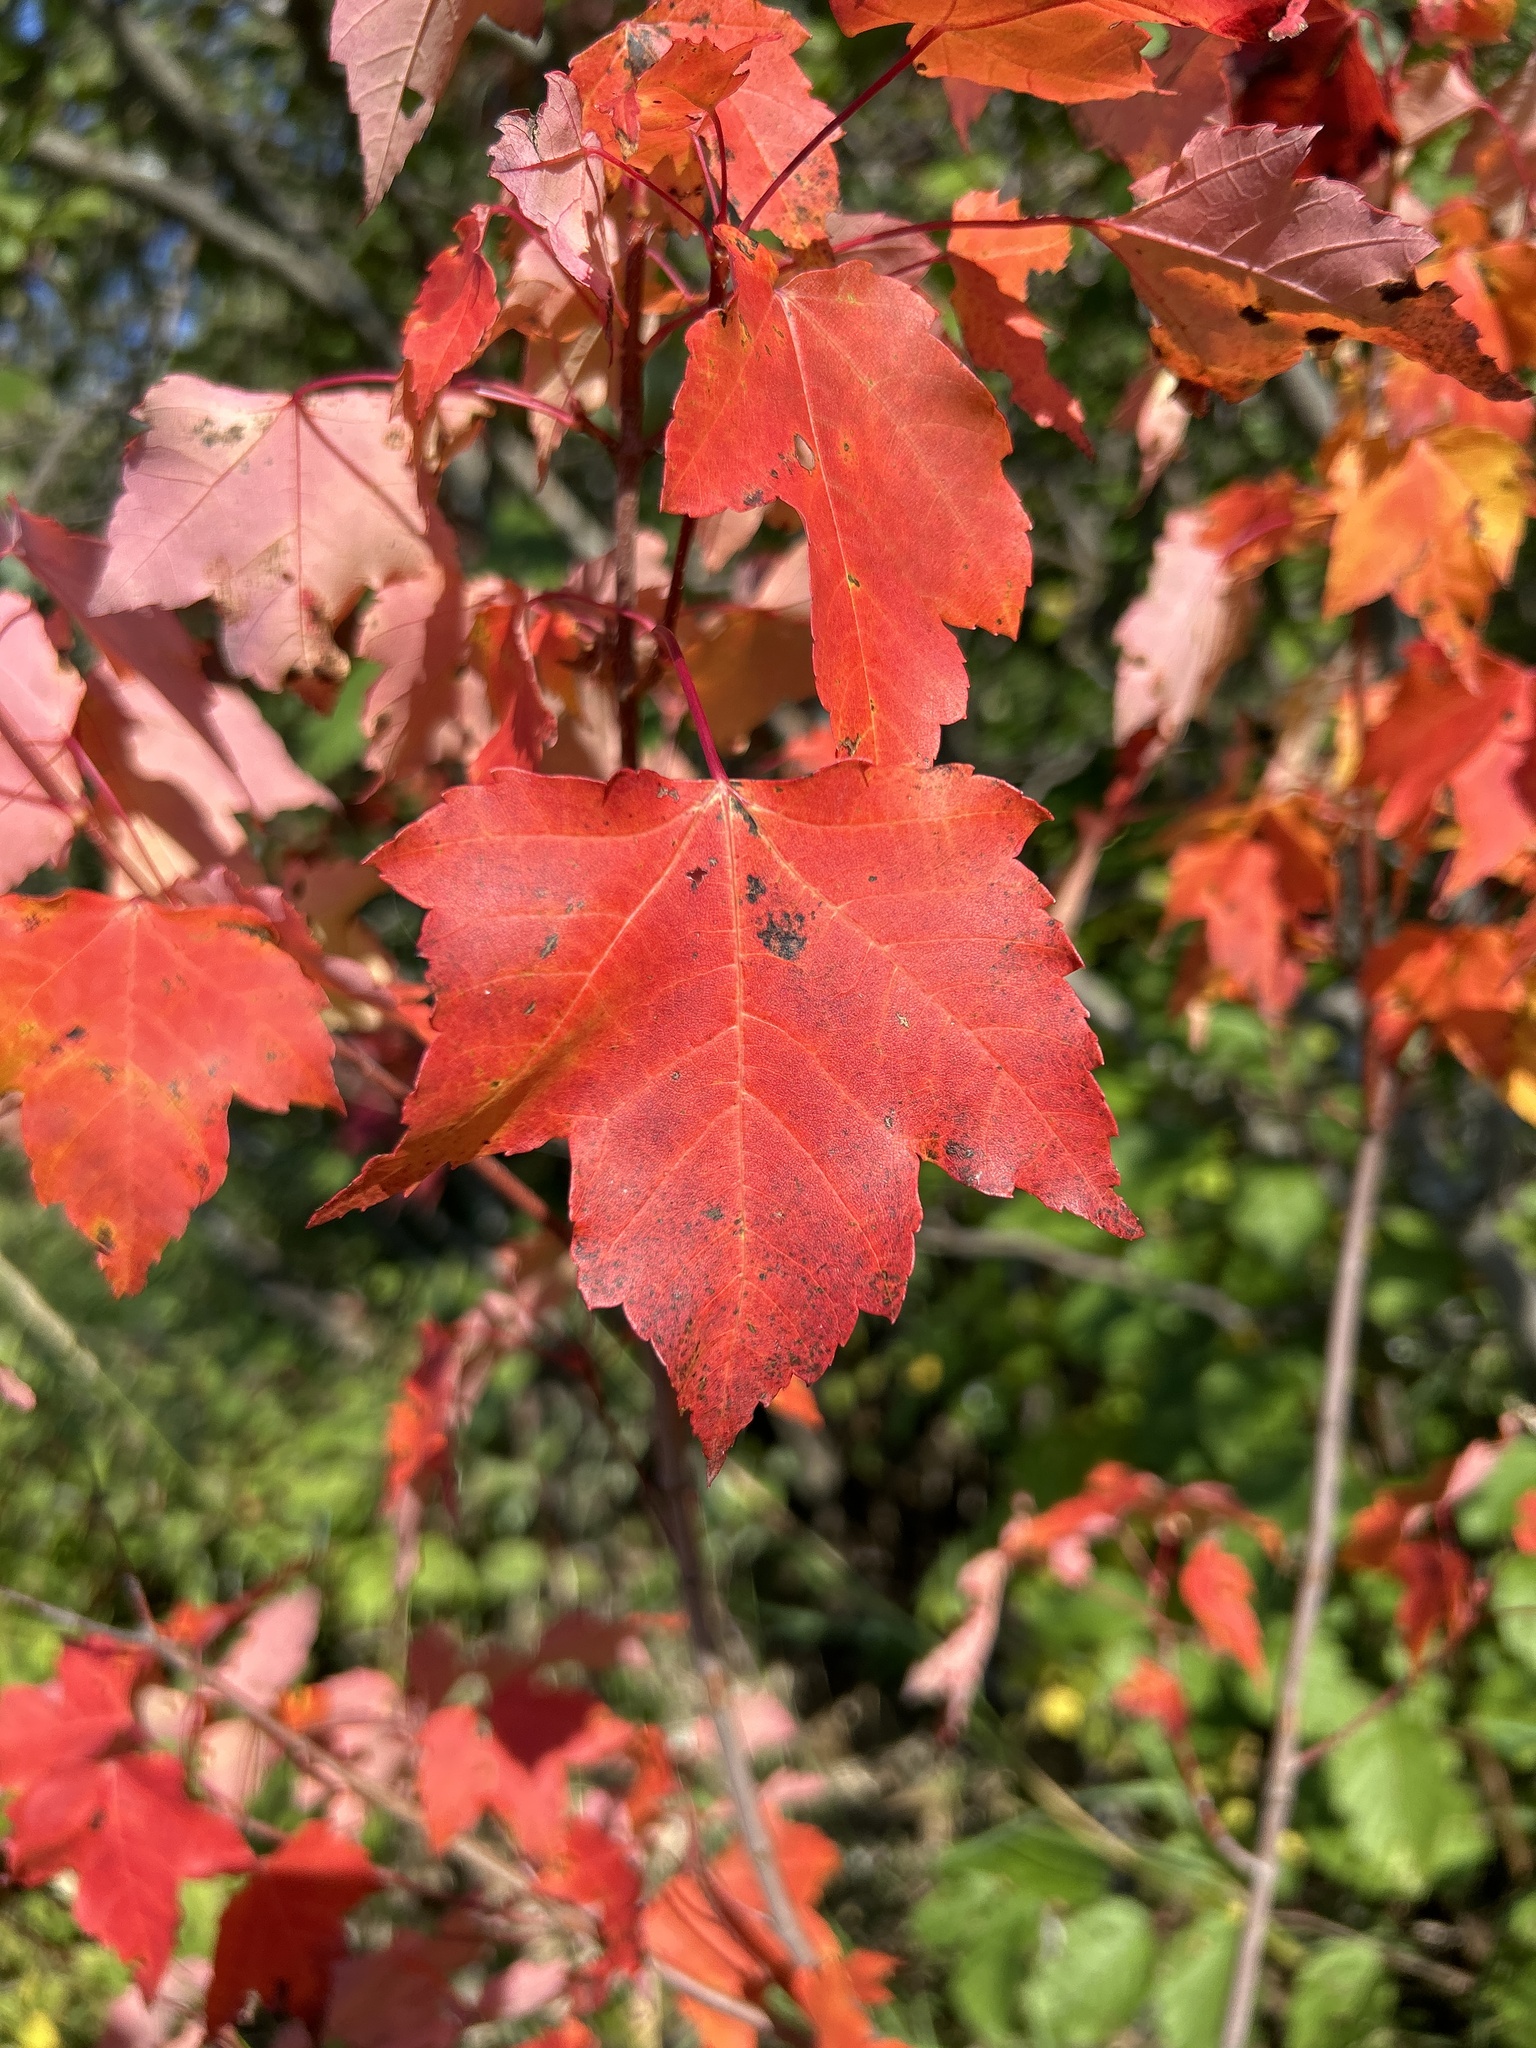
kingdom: Plantae
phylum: Tracheophyta
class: Magnoliopsida
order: Sapindales
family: Sapindaceae
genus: Acer
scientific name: Acer rubrum
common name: Red maple
